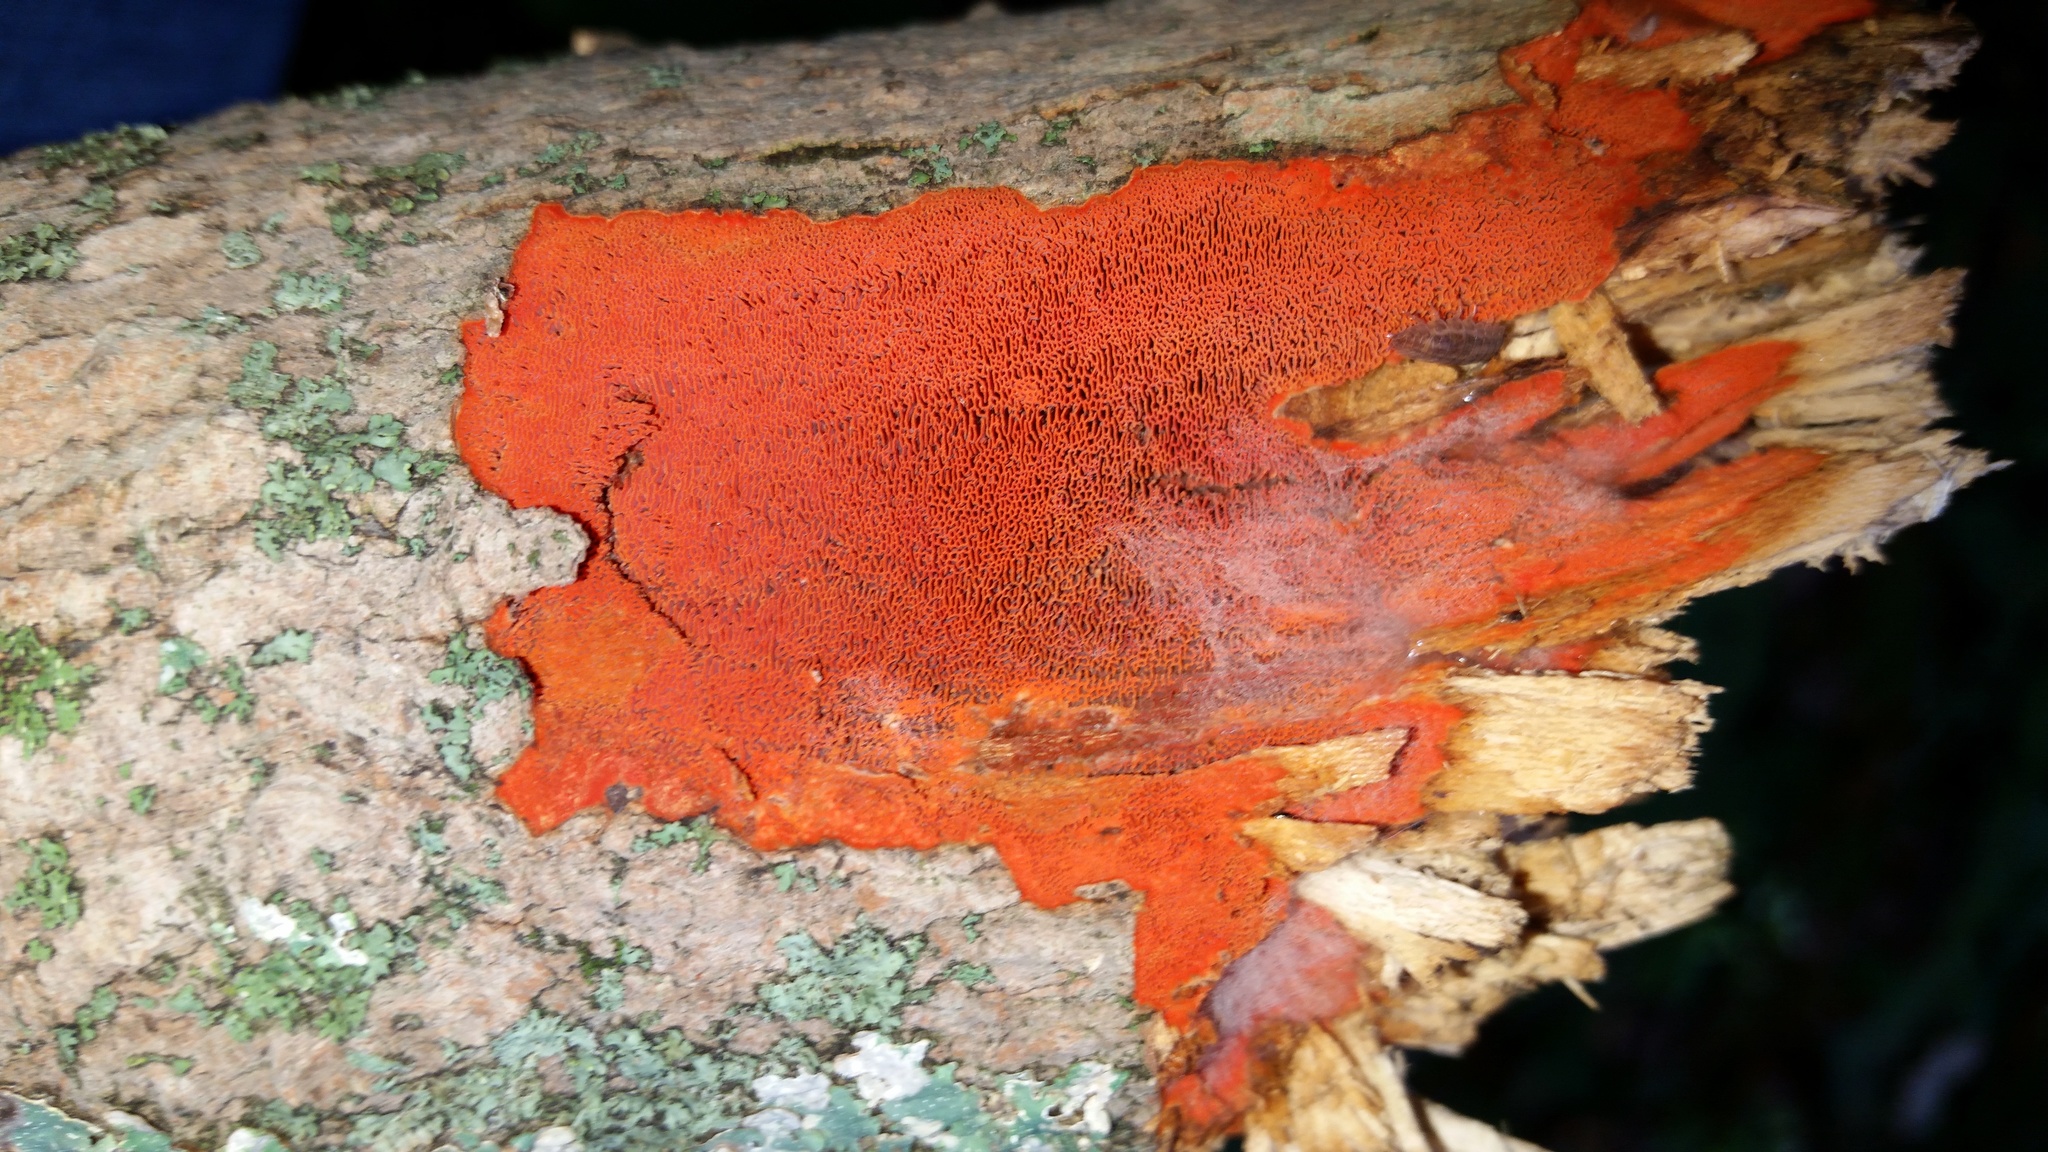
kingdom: Fungi
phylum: Basidiomycota
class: Agaricomycetes
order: Polyporales
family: Polyporaceae
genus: Trametes
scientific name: Trametes cinnabarina
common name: Northern cinnabar polypore
